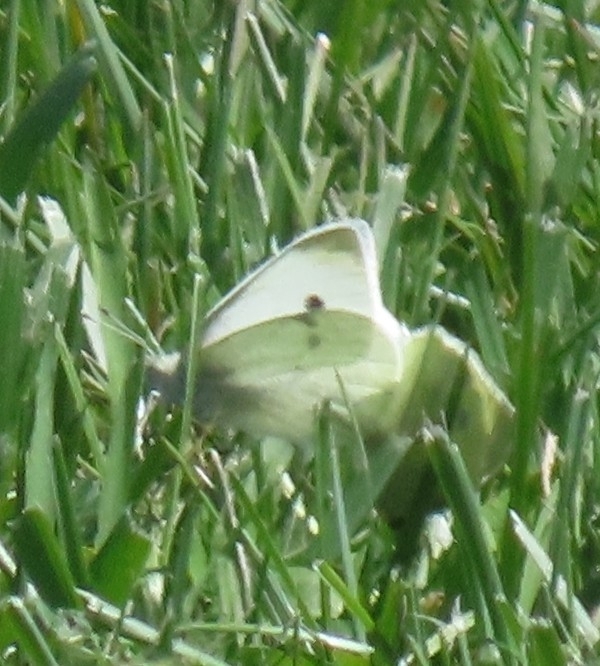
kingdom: Animalia
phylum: Arthropoda
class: Insecta
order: Lepidoptera
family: Pieridae
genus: Pieris
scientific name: Pieris rapae
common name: Small white
